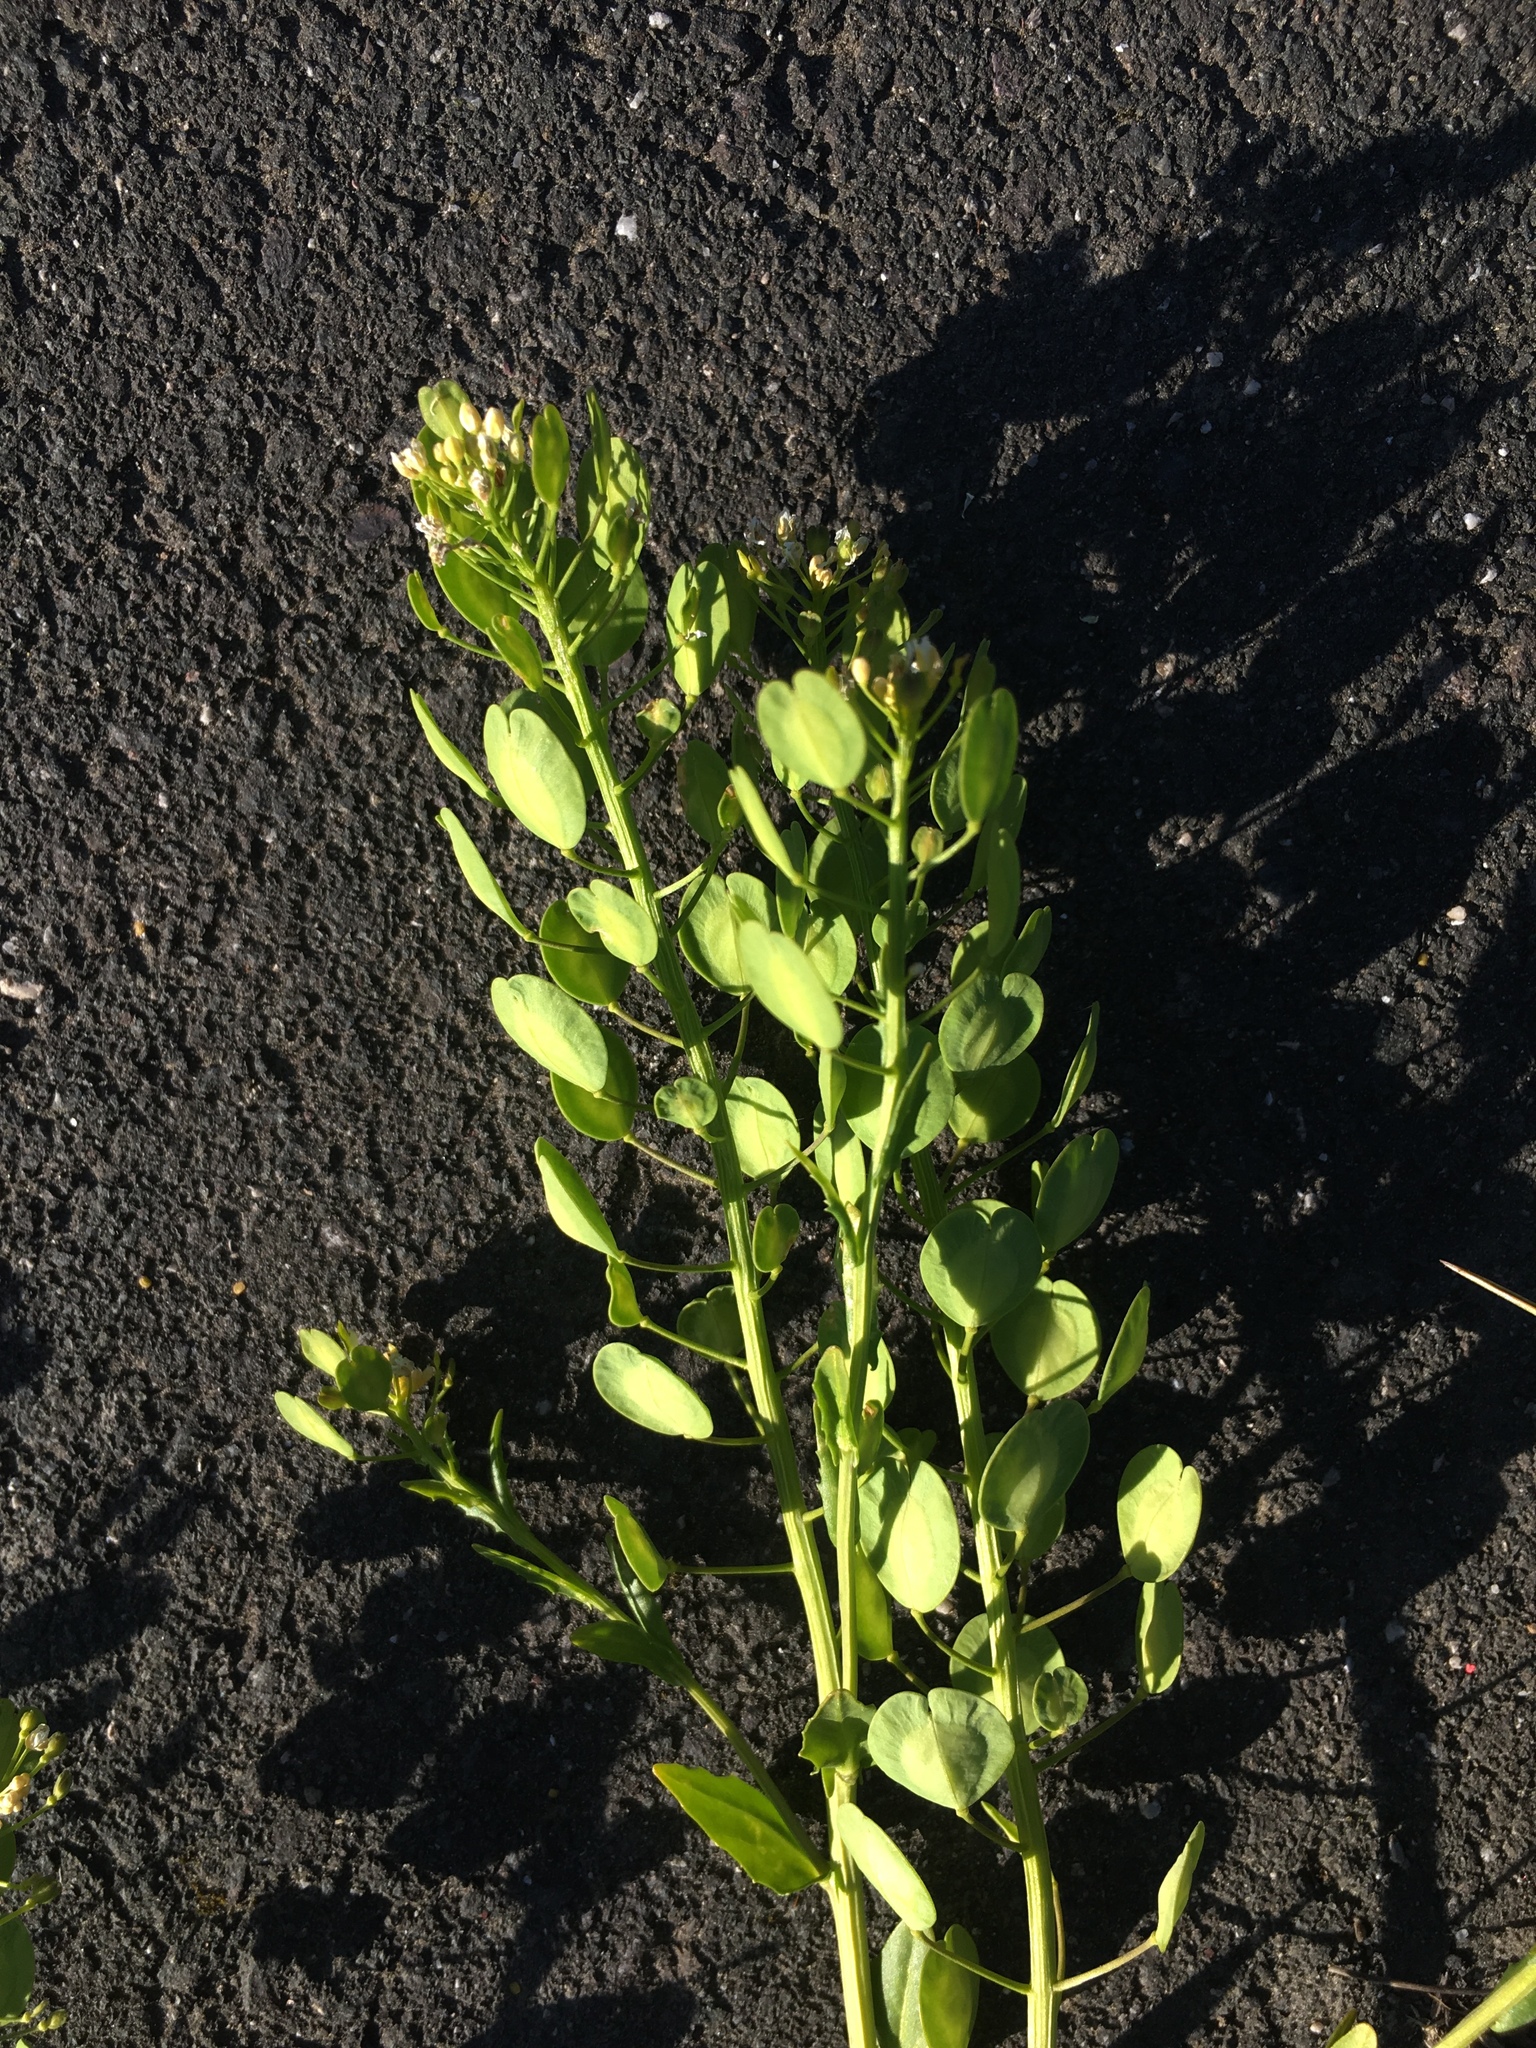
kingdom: Plantae
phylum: Tracheophyta
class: Magnoliopsida
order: Brassicales
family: Brassicaceae
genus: Thlaspi
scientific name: Thlaspi arvense
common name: Field pennycress
